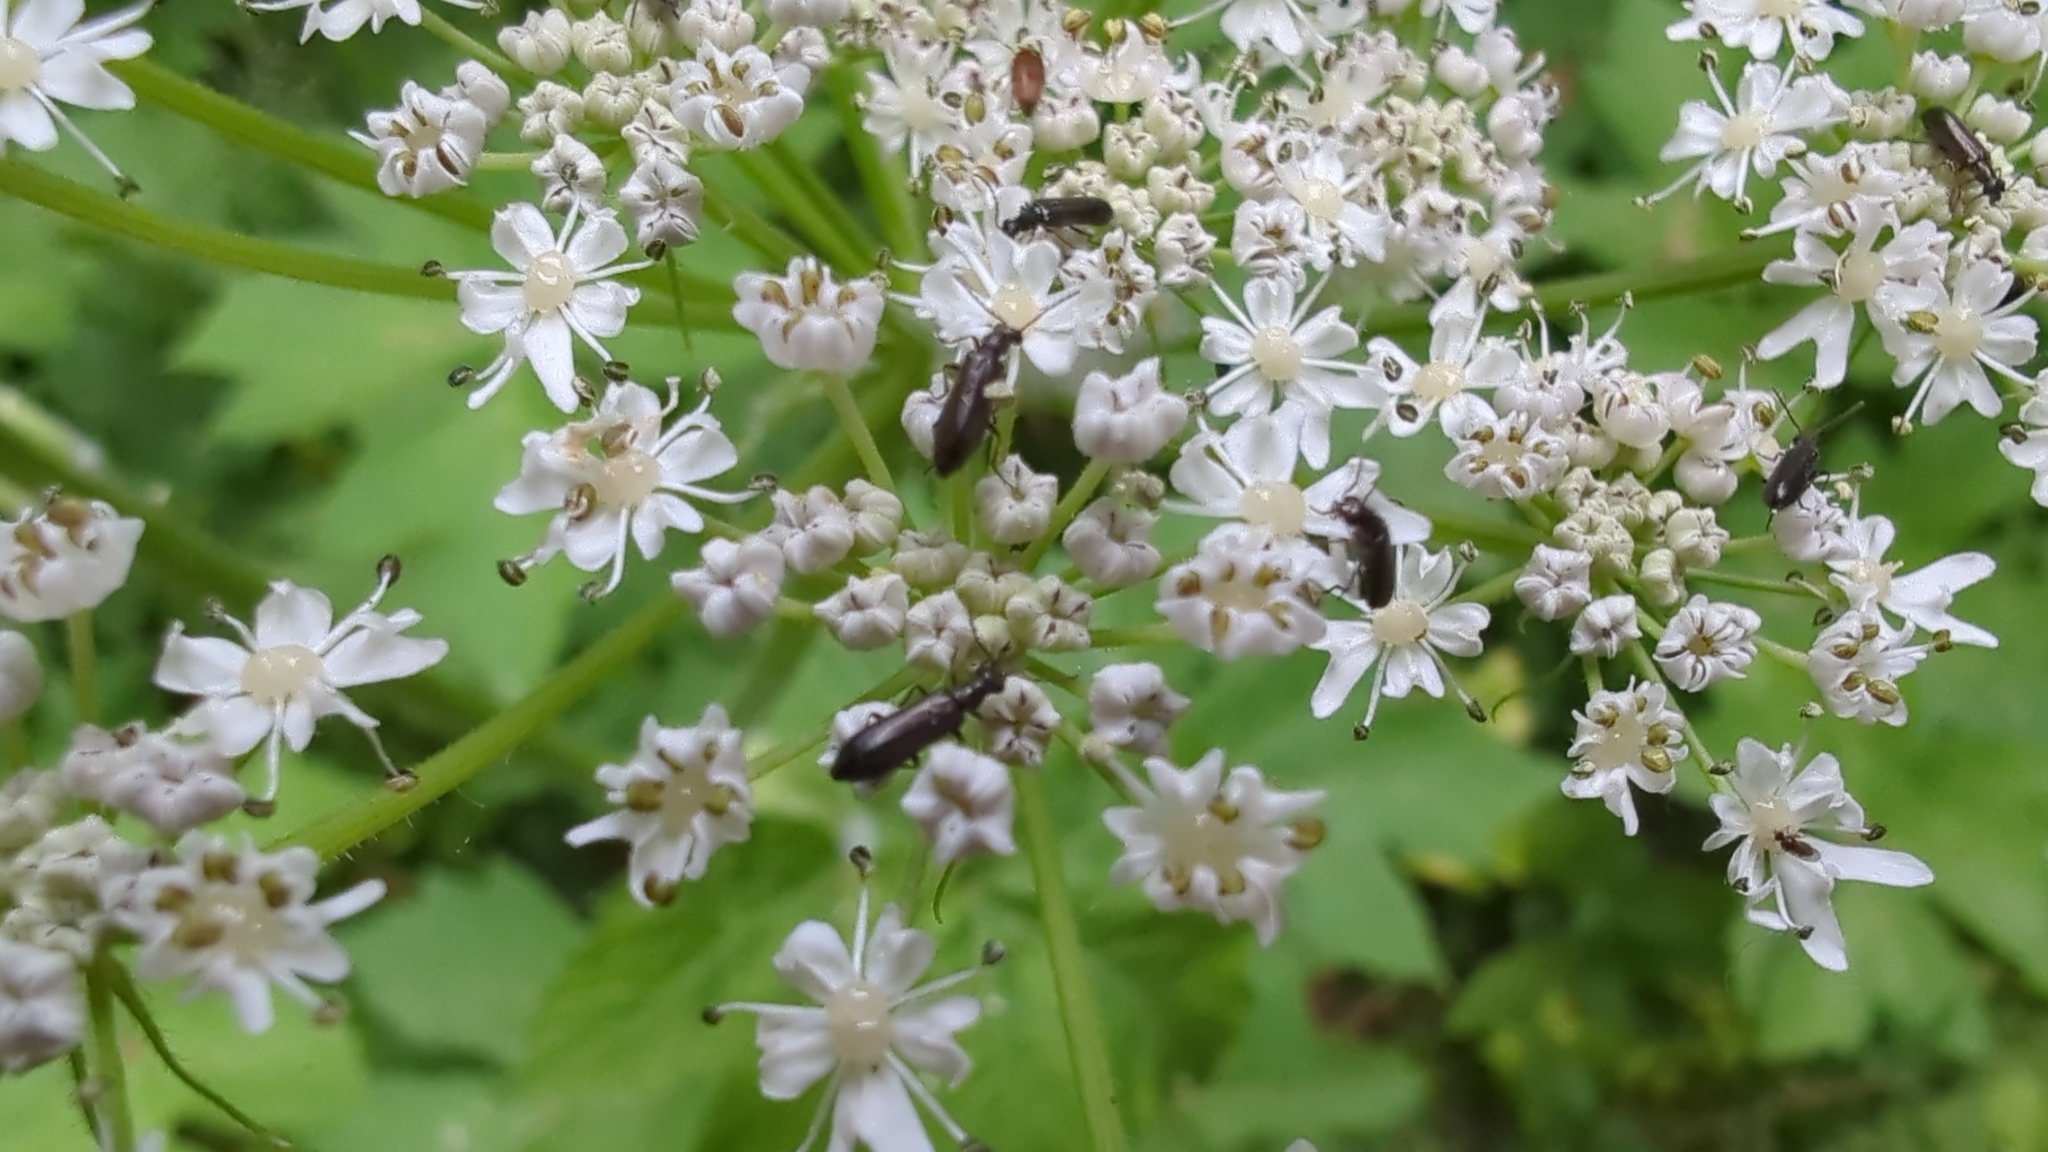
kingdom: Animalia
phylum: Arthropoda
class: Insecta
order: Coleoptera
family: Melyridae
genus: Dasytes
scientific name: Dasytes plumbeus
